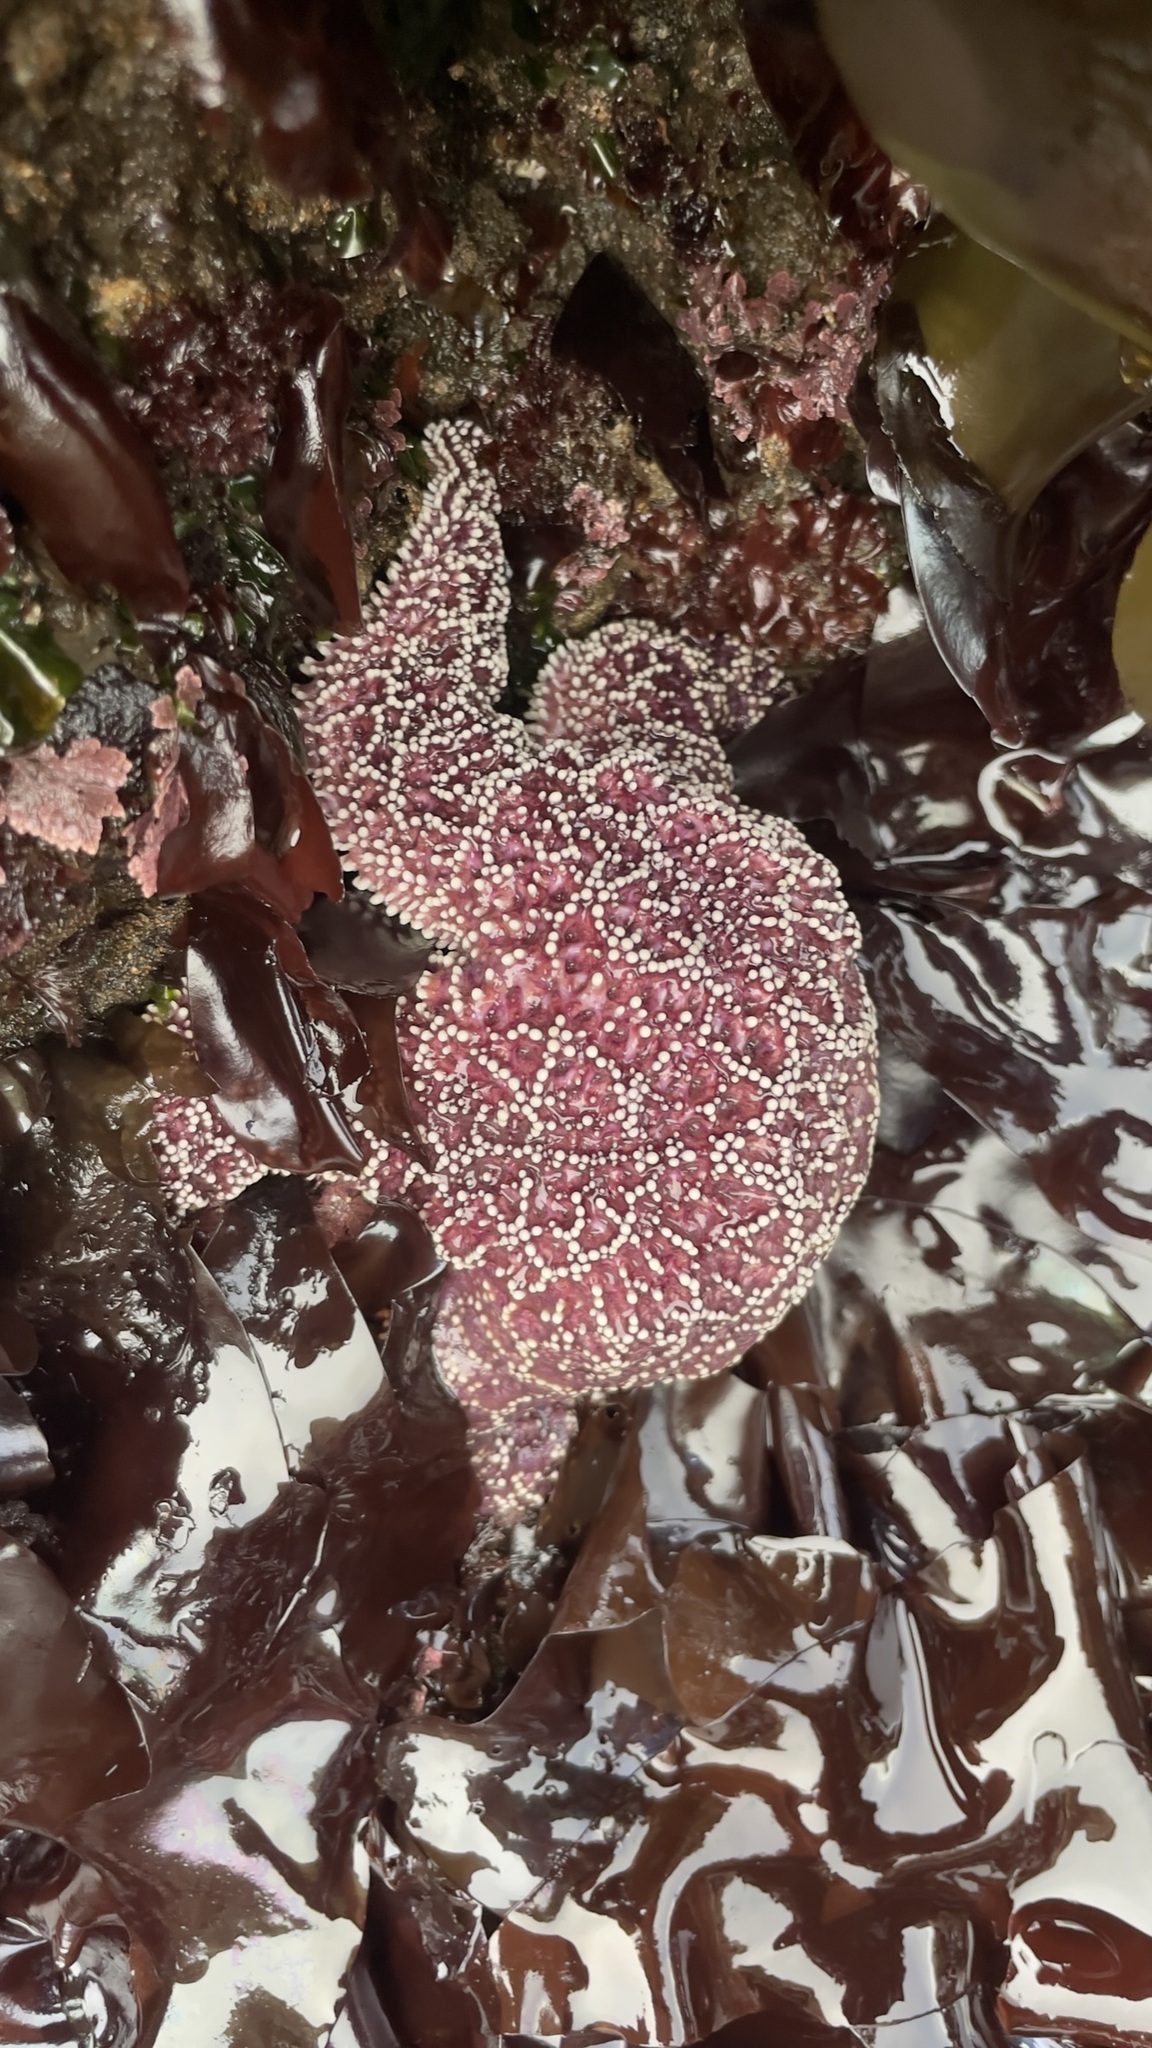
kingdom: Animalia
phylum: Echinodermata
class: Asteroidea
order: Forcipulatida
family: Asteriidae
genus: Pisaster
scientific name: Pisaster ochraceus
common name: Ochre stars
